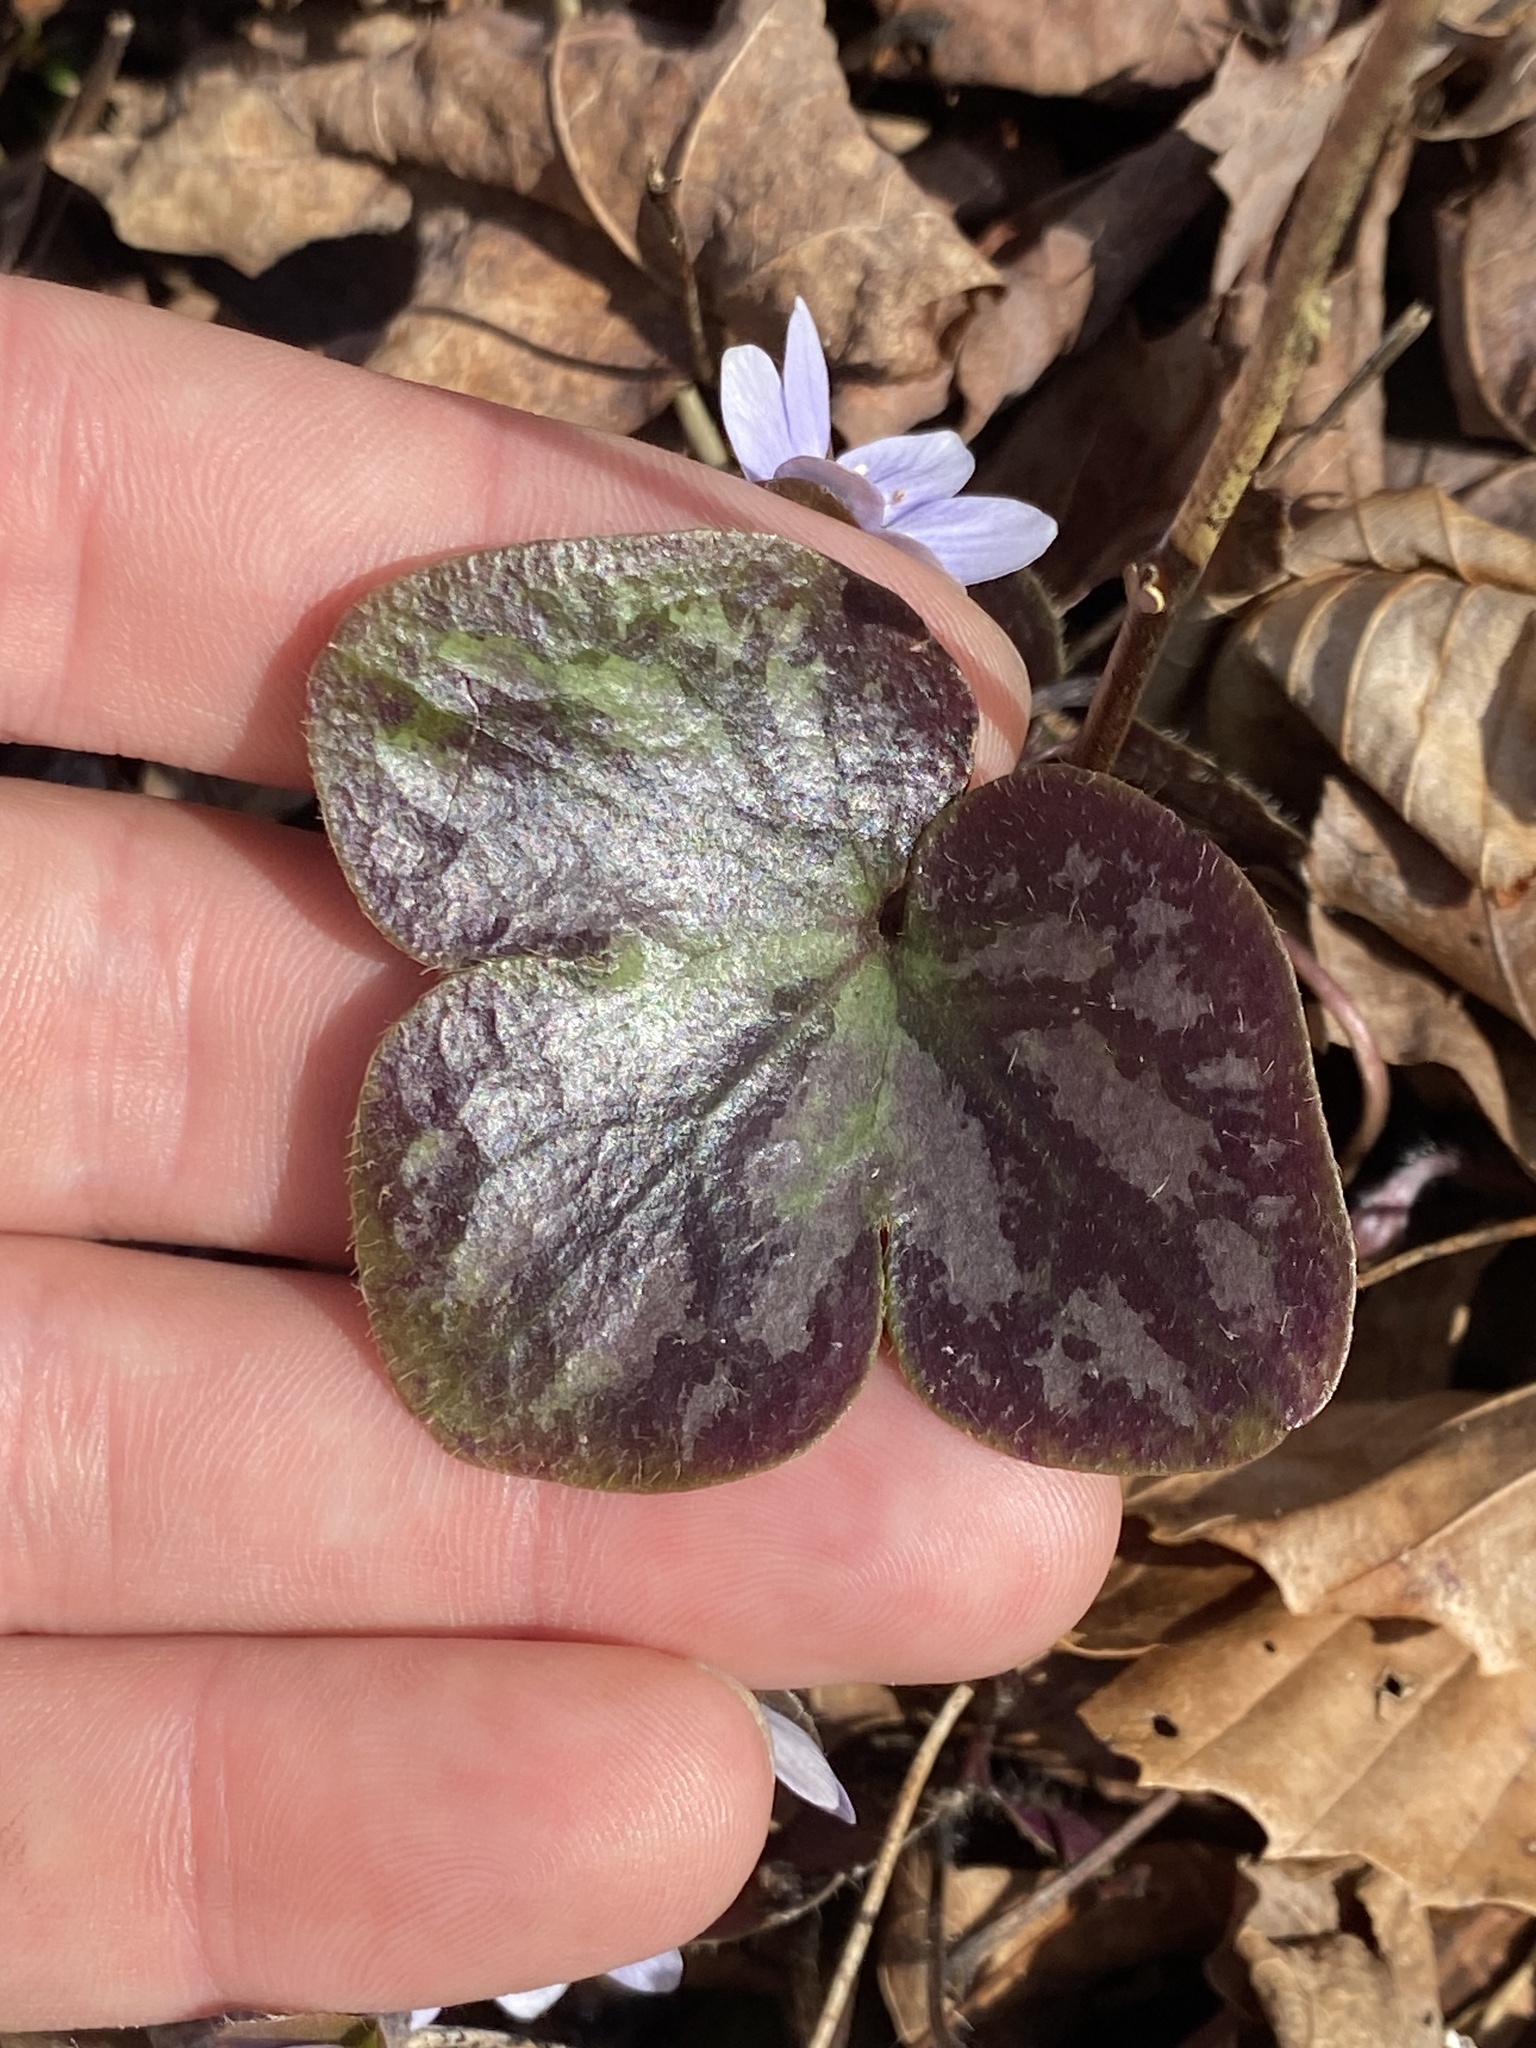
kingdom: Plantae
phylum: Tracheophyta
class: Magnoliopsida
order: Ranunculales
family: Ranunculaceae
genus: Hepatica
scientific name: Hepatica americana
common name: American hepatica
